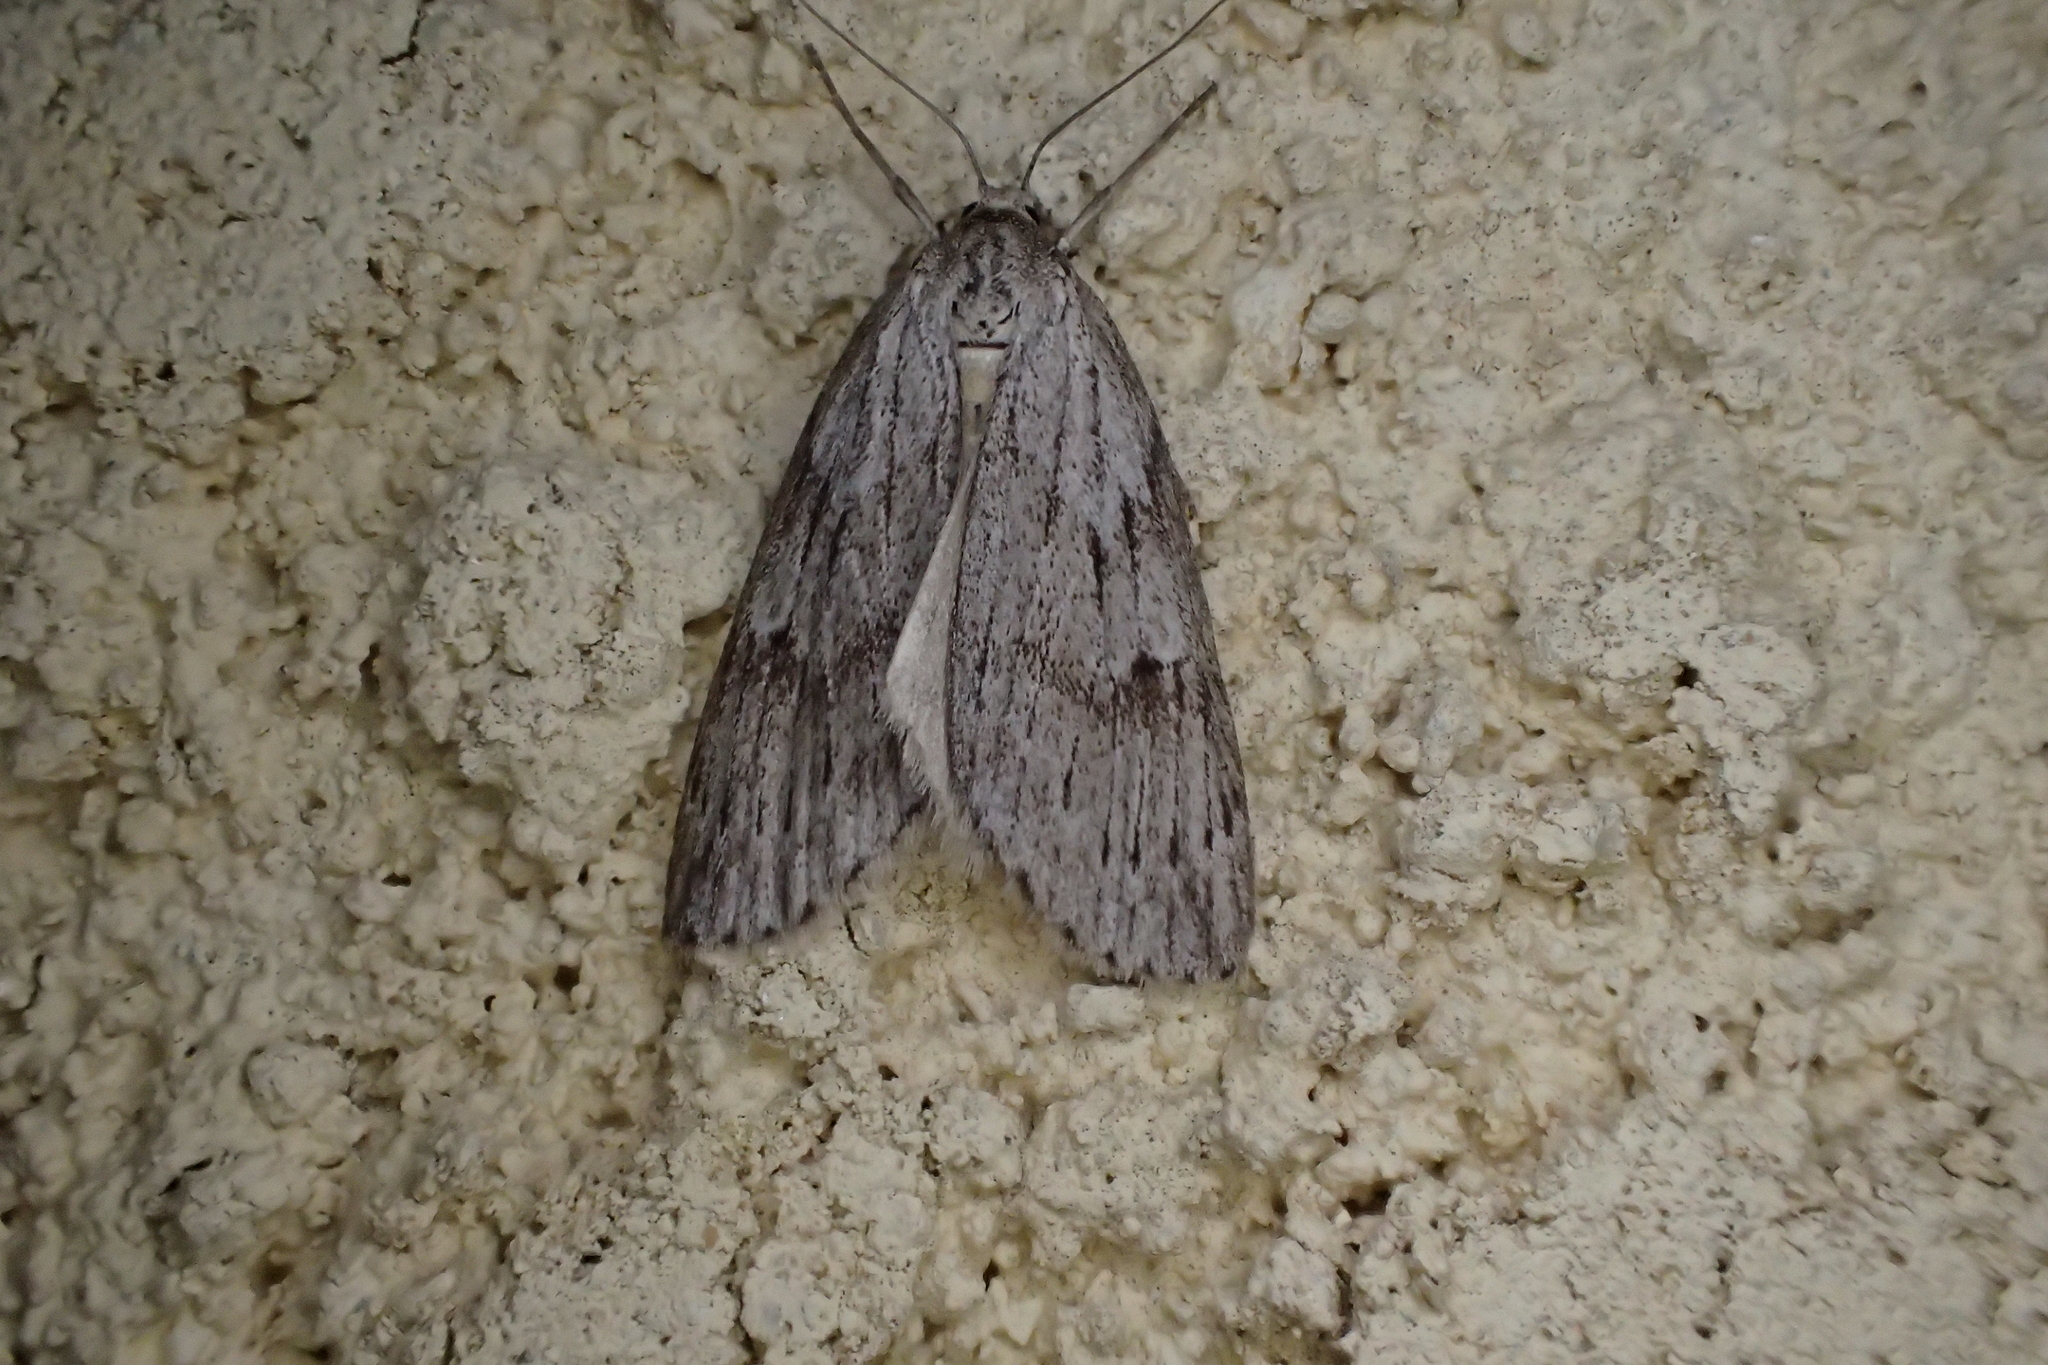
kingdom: Animalia
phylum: Arthropoda
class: Insecta
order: Lepidoptera
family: Geometridae
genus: Pachycnemia
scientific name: Pachycnemia hippocastanaria
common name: Horse chestnut
